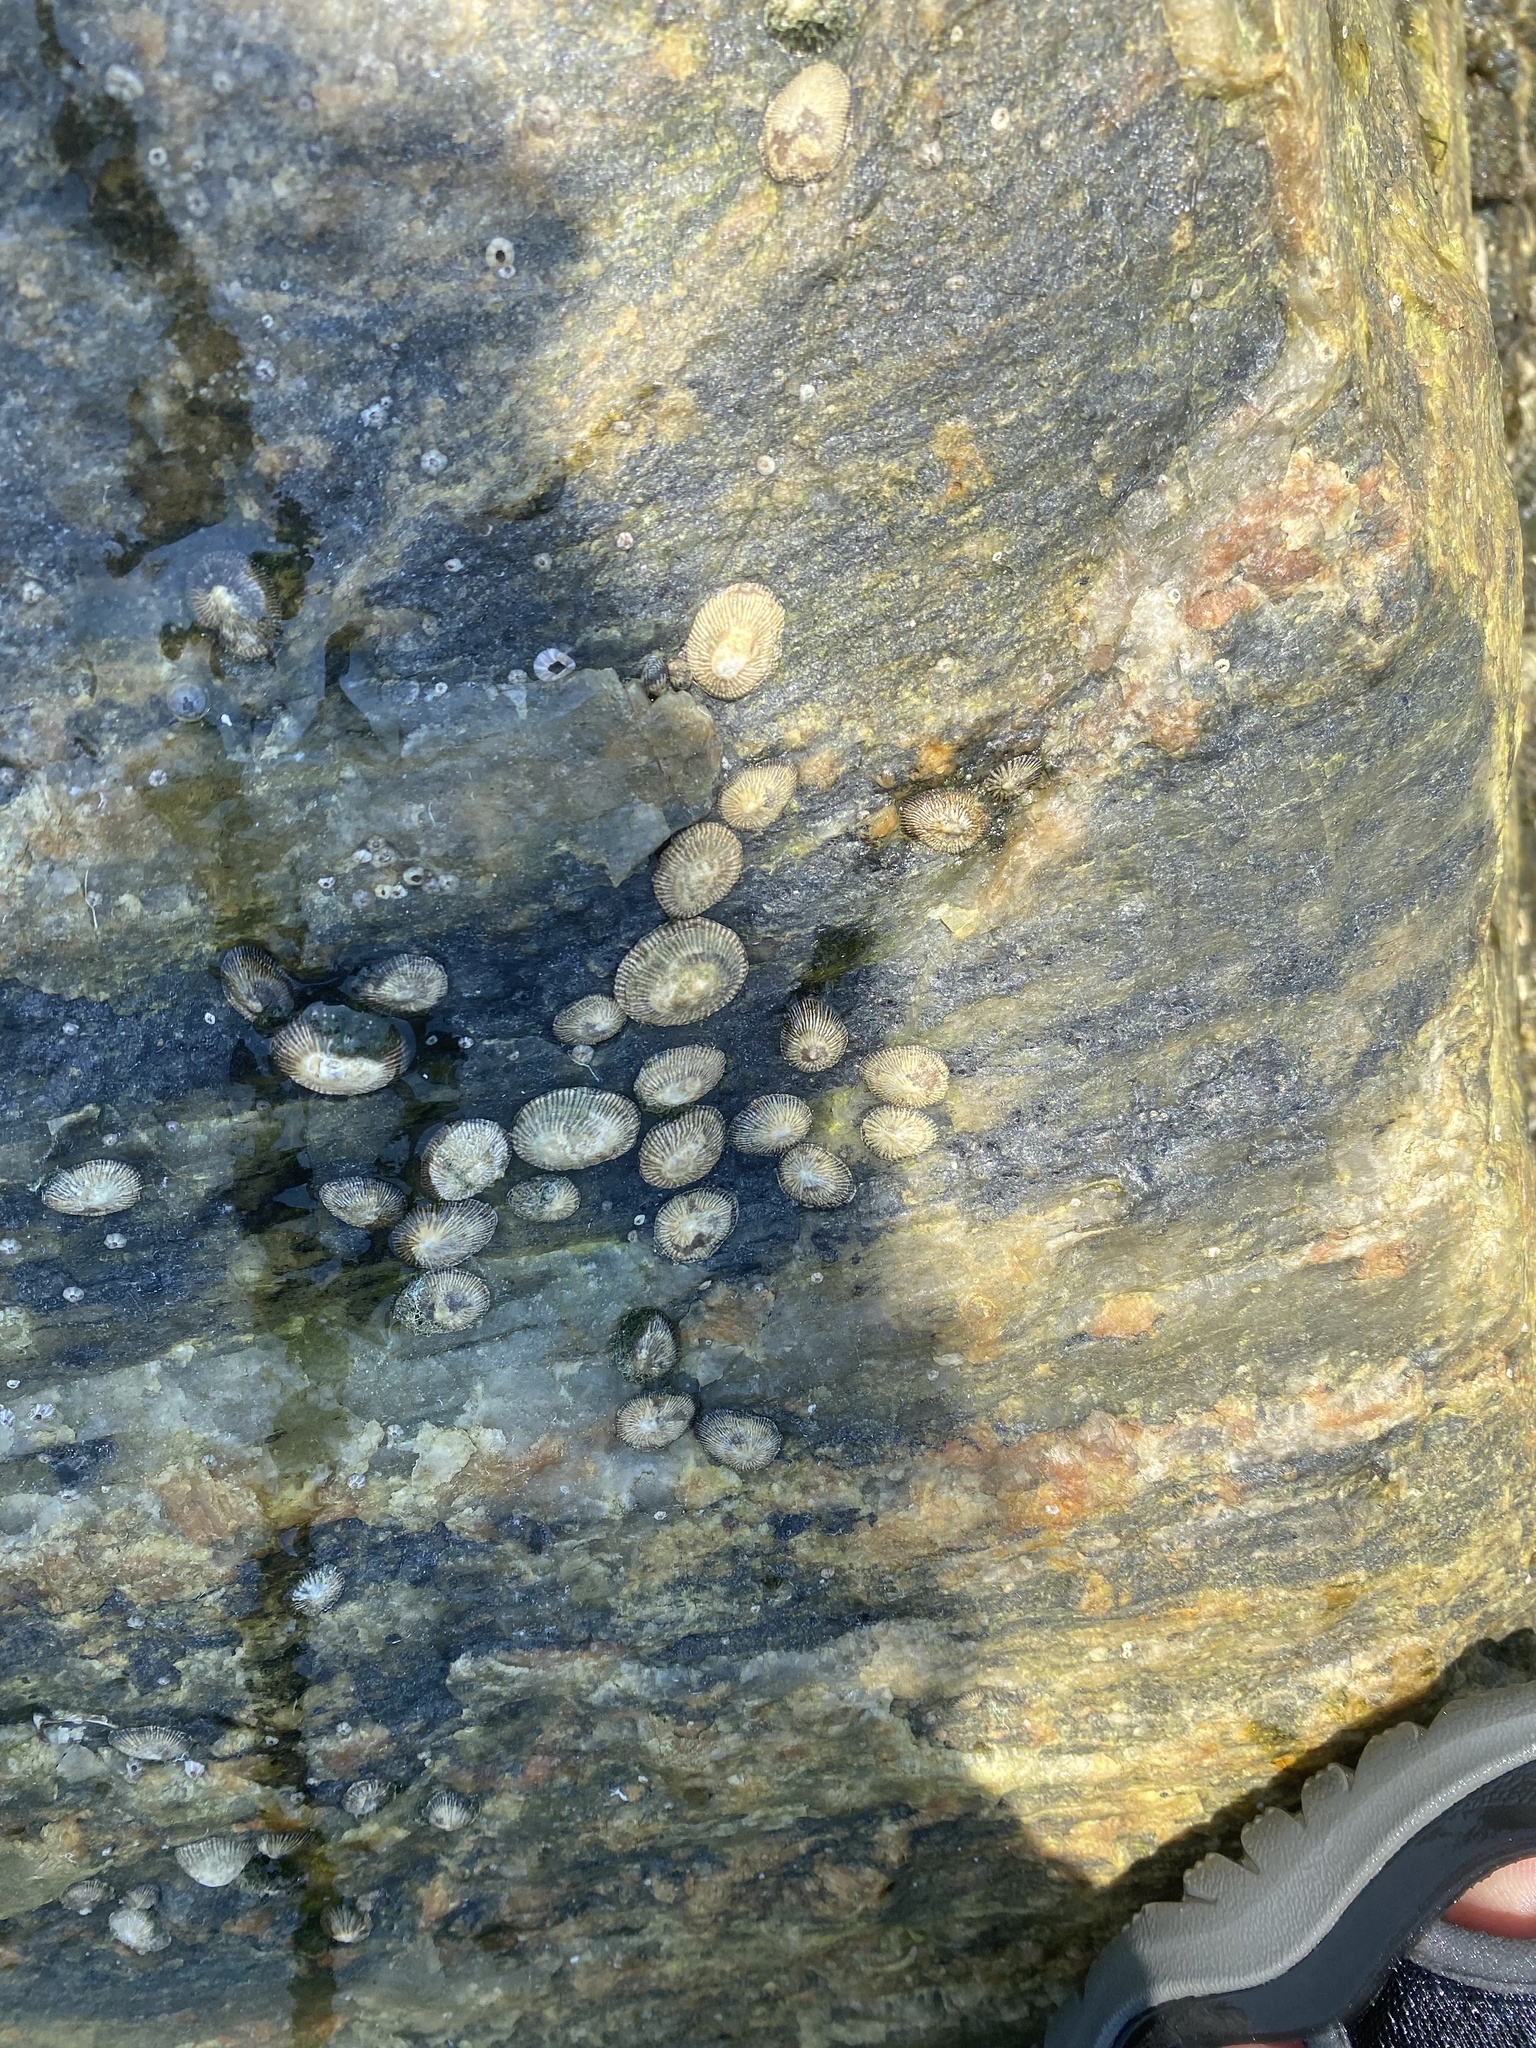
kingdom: Animalia
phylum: Mollusca
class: Gastropoda
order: Siphonariida
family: Siphonariidae
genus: Siphonaria
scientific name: Siphonaria naufragum
